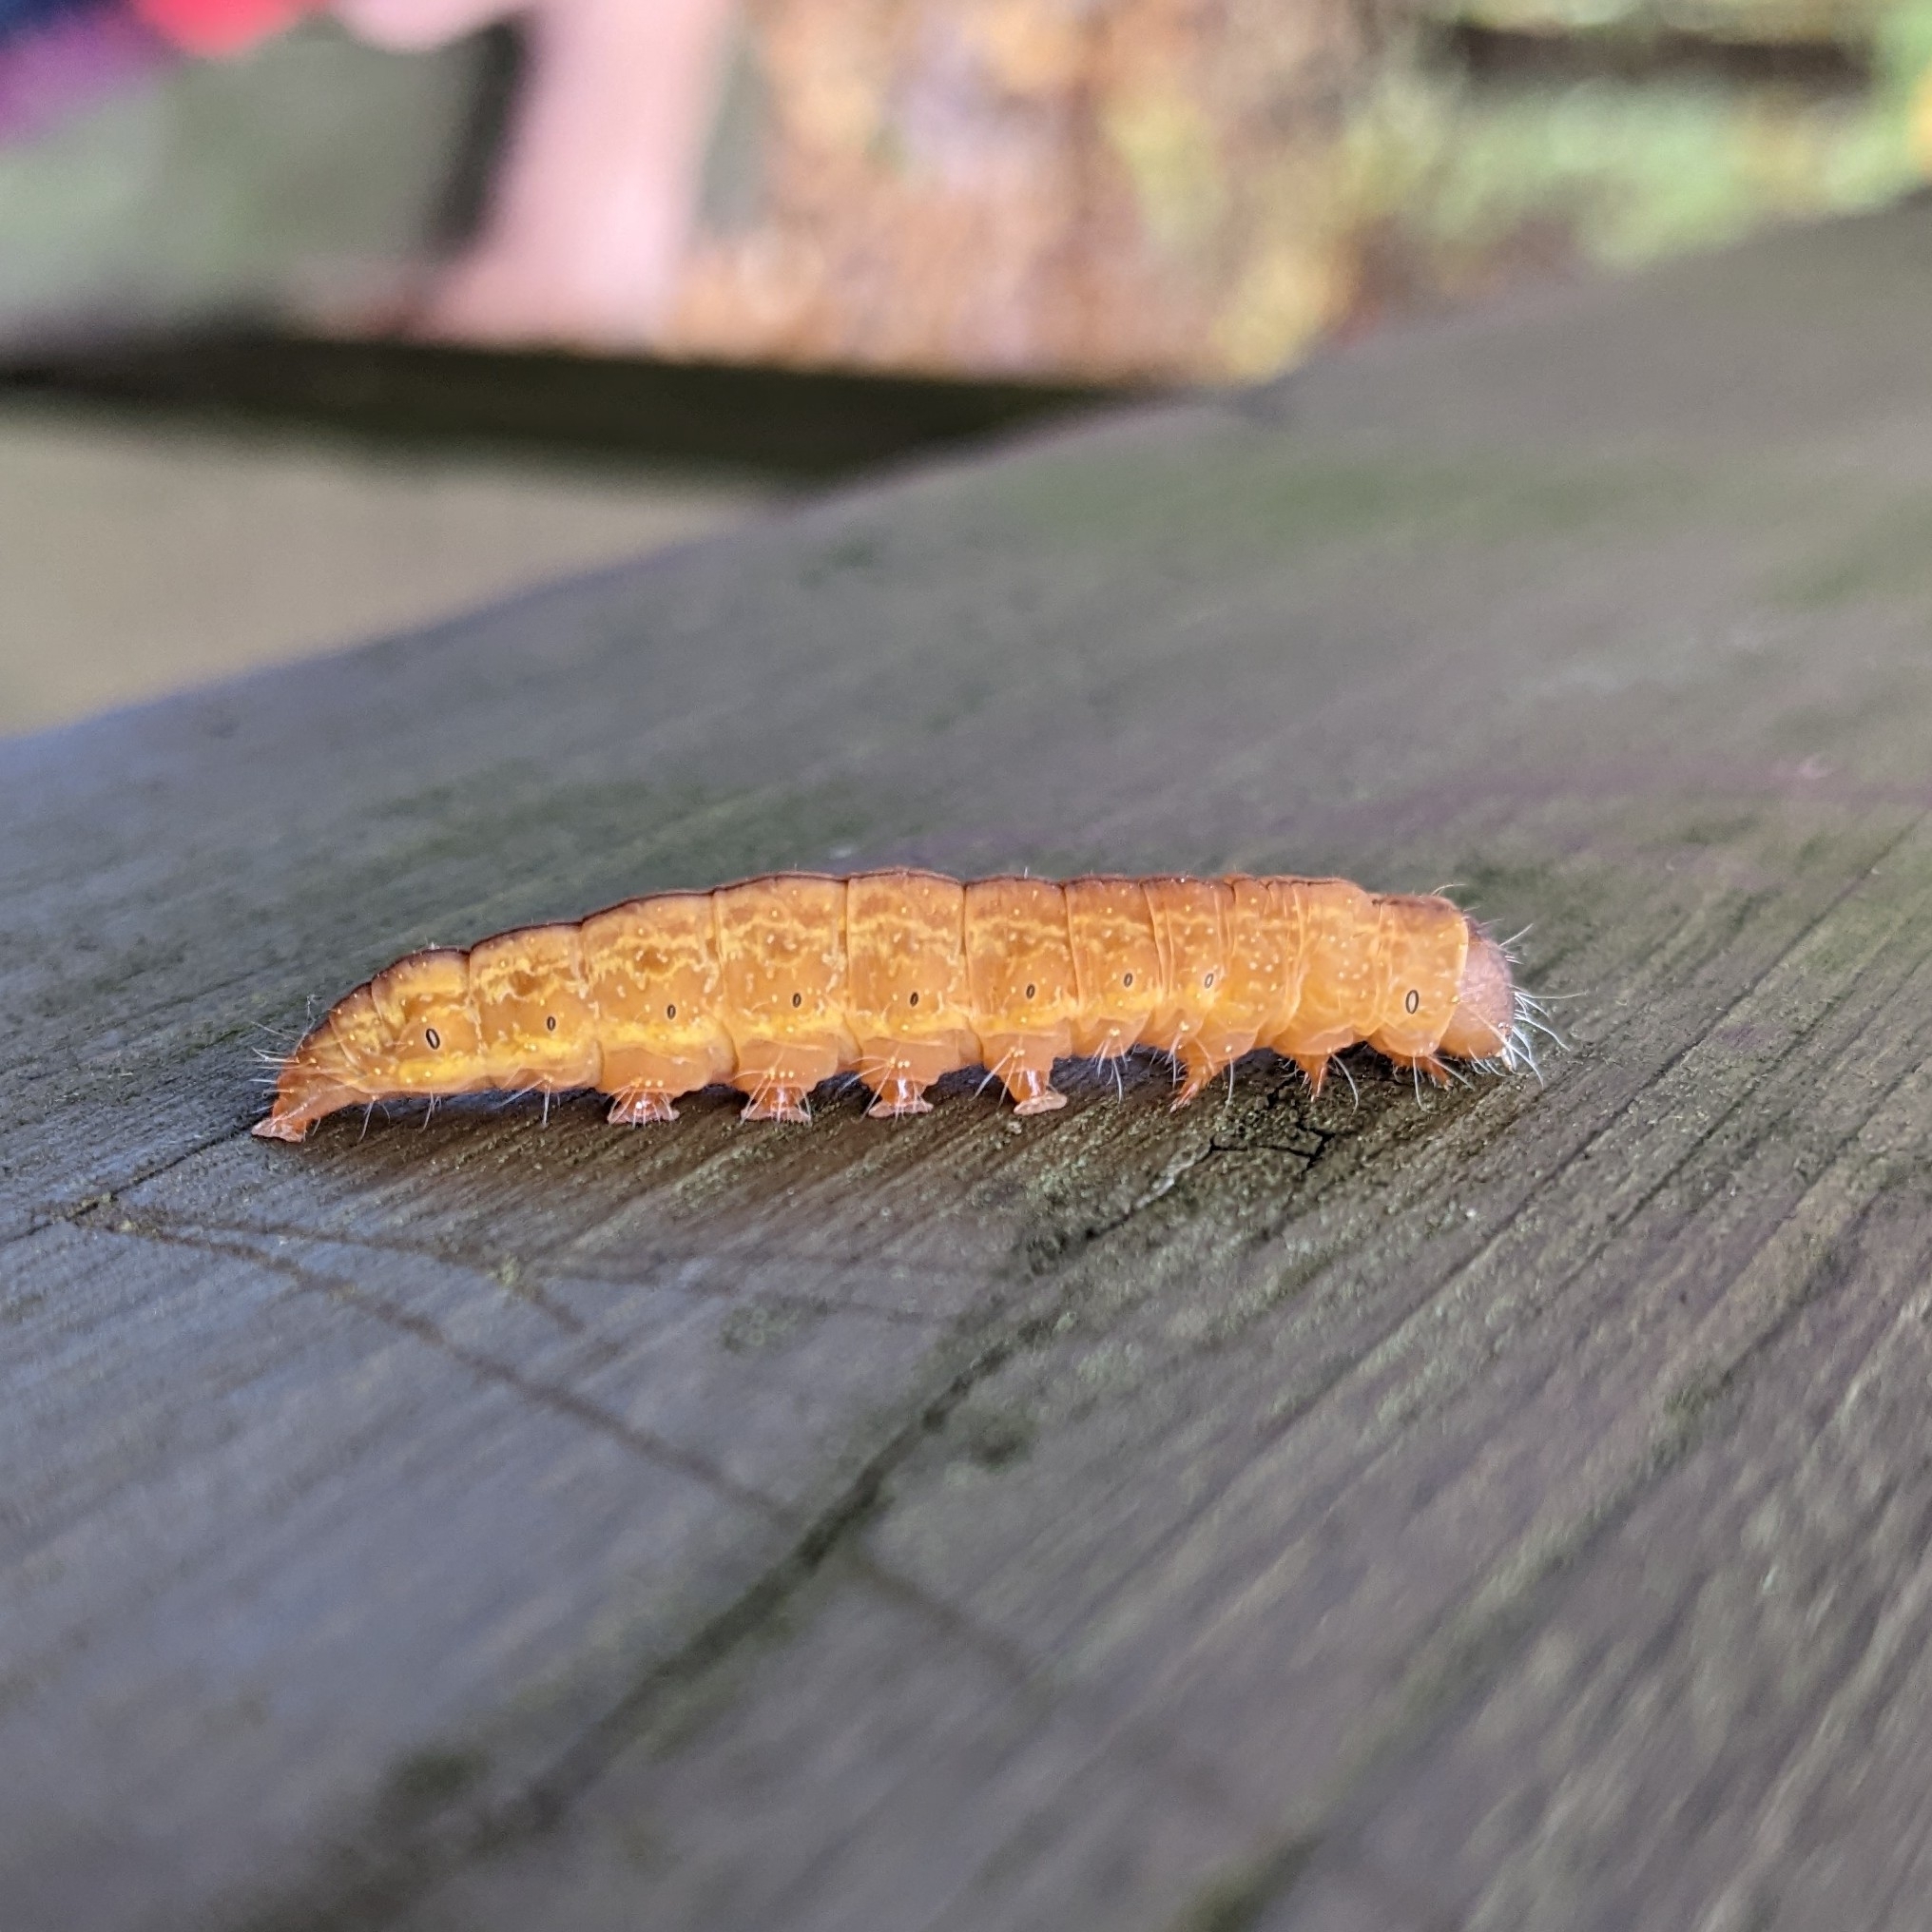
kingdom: Animalia
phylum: Arthropoda
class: Insecta
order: Lepidoptera
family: Noctuidae
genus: Acronicta
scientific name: Acronicta afflicta
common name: Afflicted dagger moth
